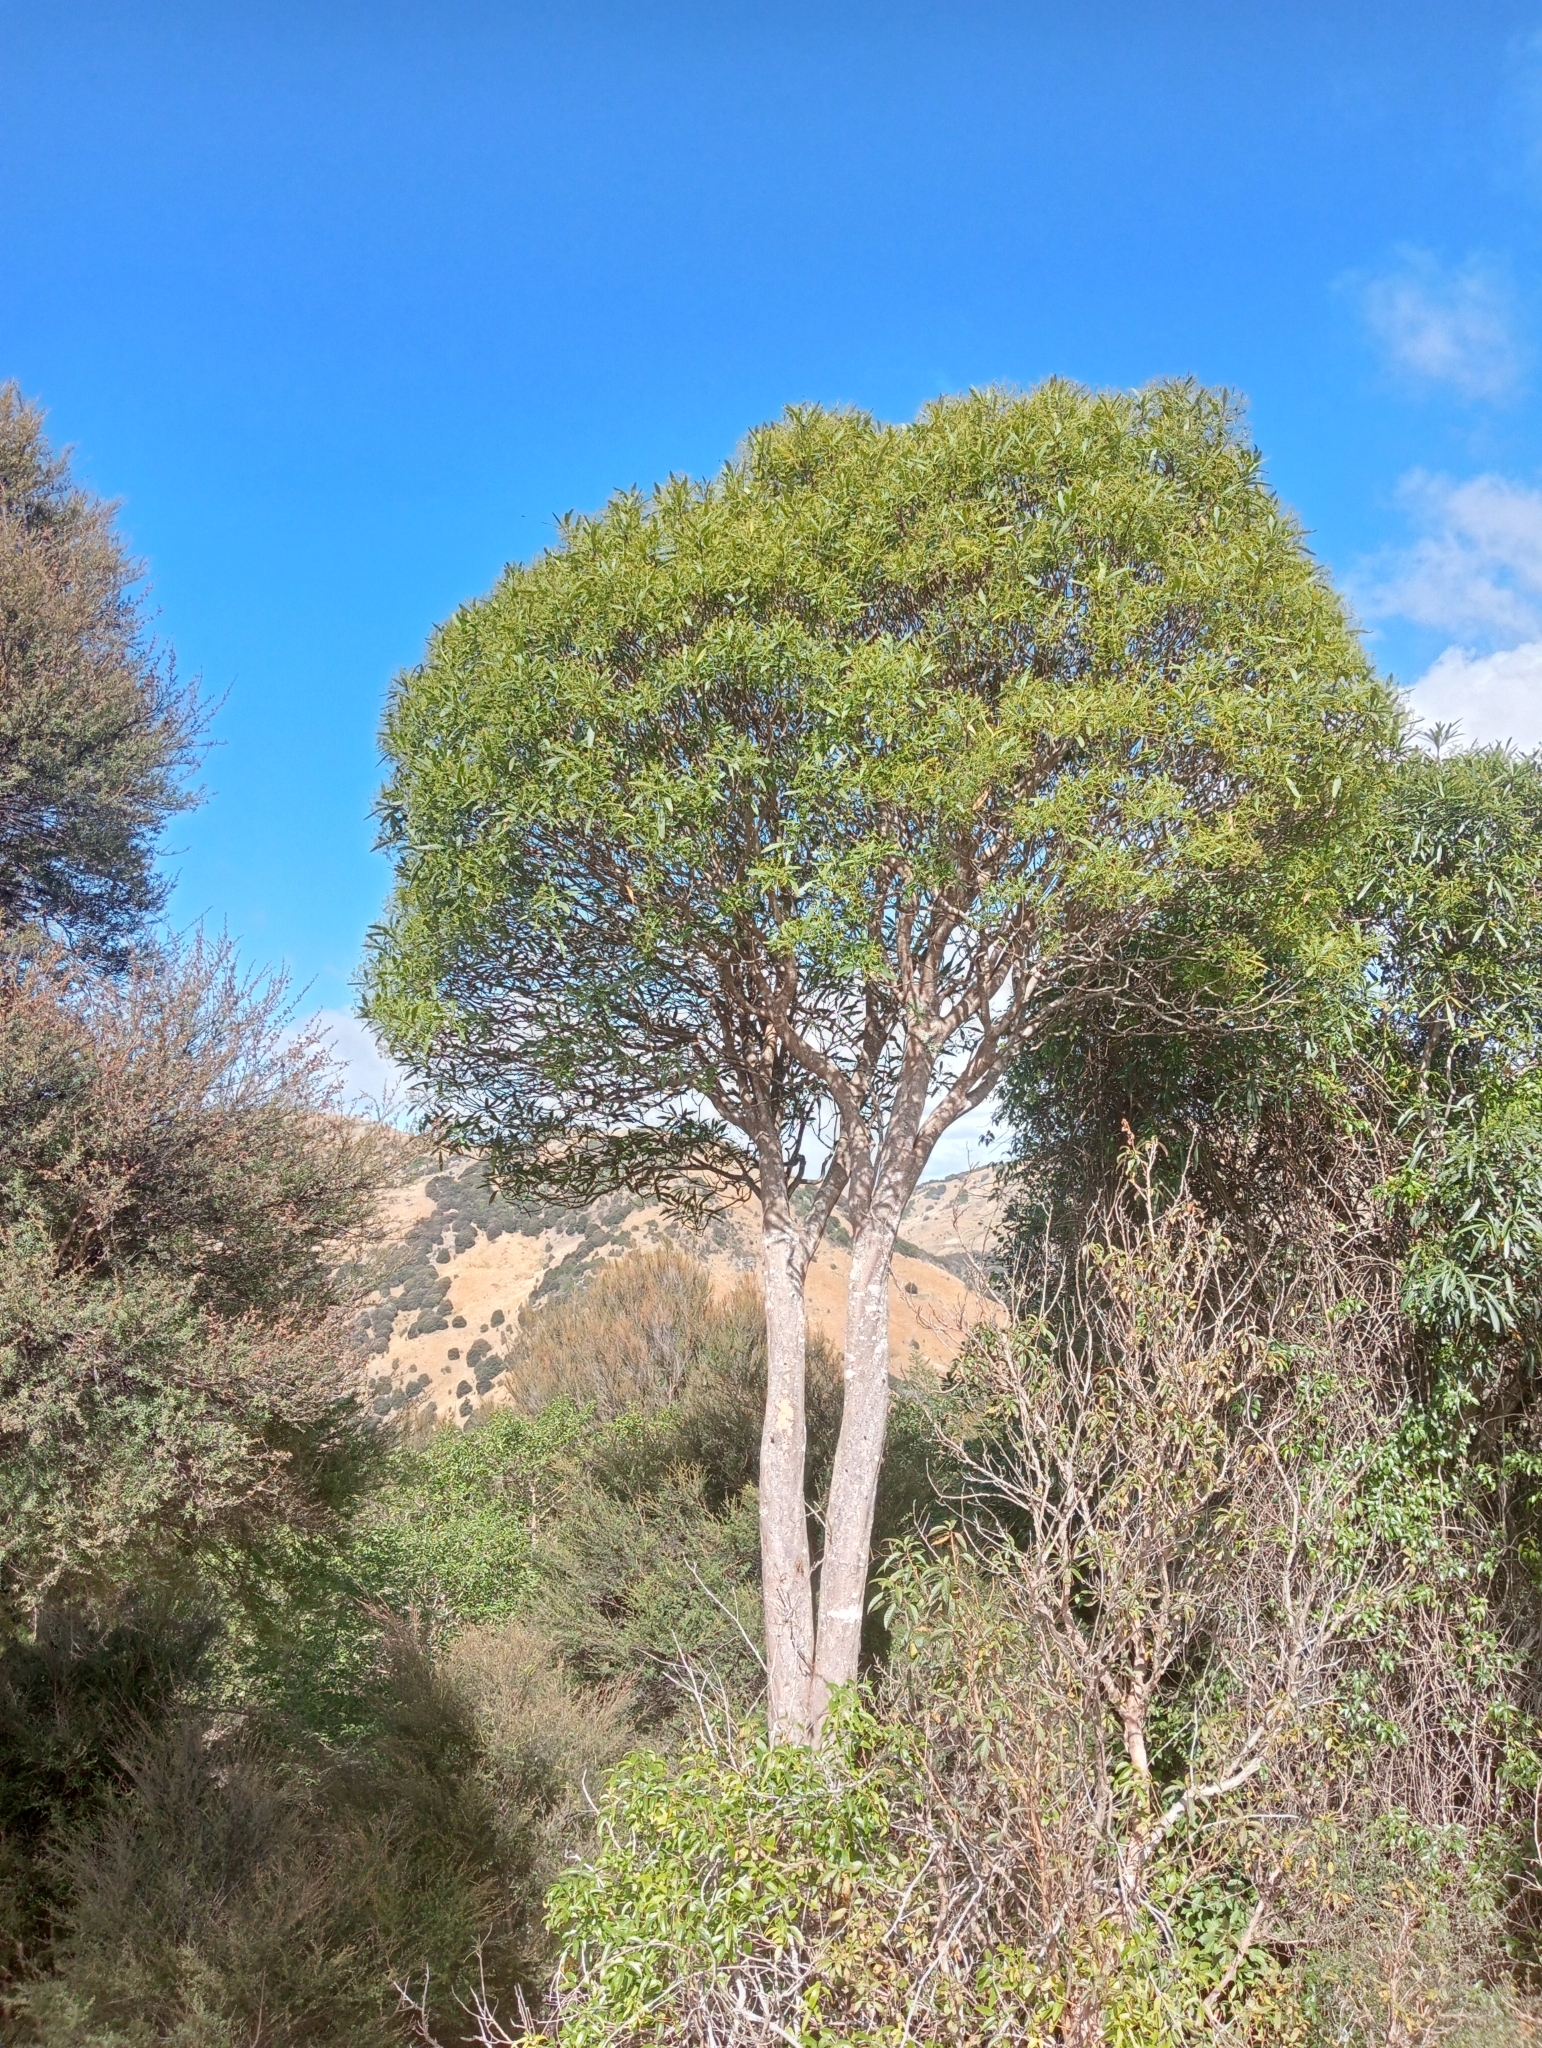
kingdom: Plantae
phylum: Tracheophyta
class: Magnoliopsida
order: Apiales
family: Araliaceae
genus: Pseudopanax
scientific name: Pseudopanax crassifolius
